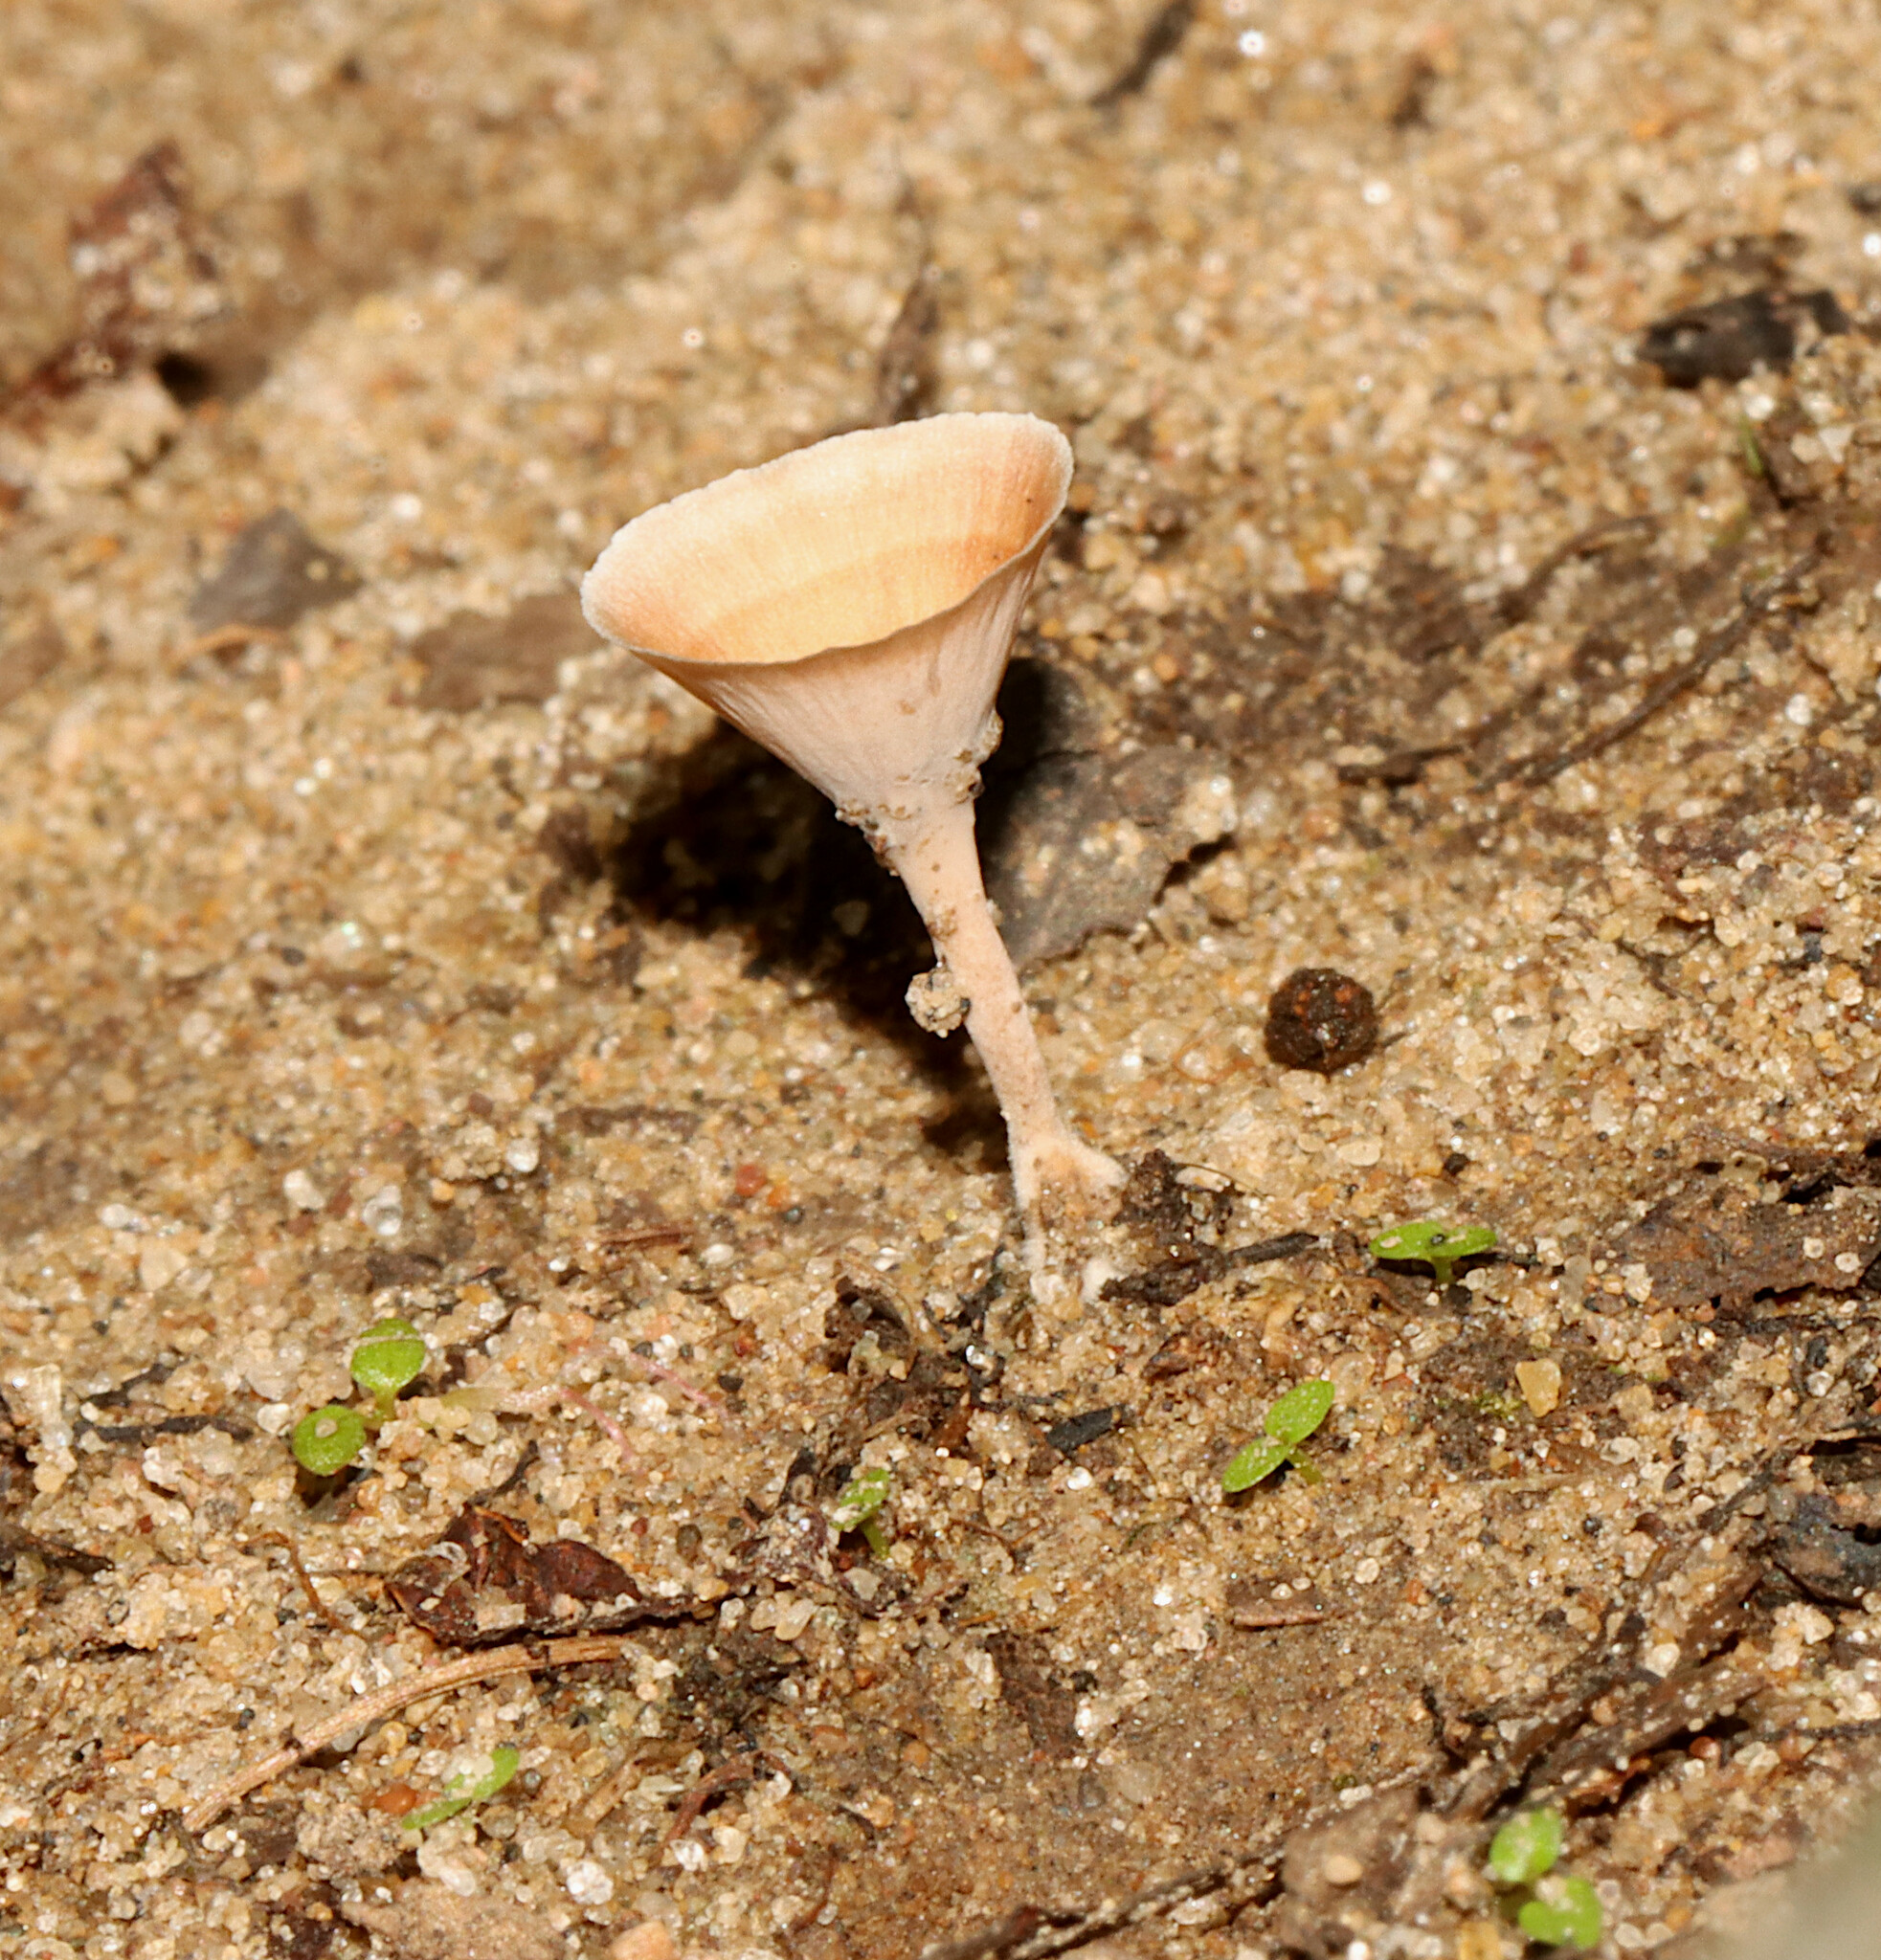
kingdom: Fungi
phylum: Basidiomycota
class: Agaricomycetes
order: Polyporales
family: Podoscyphaceae
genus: Podoscypha
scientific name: Podoscypha petalodes
